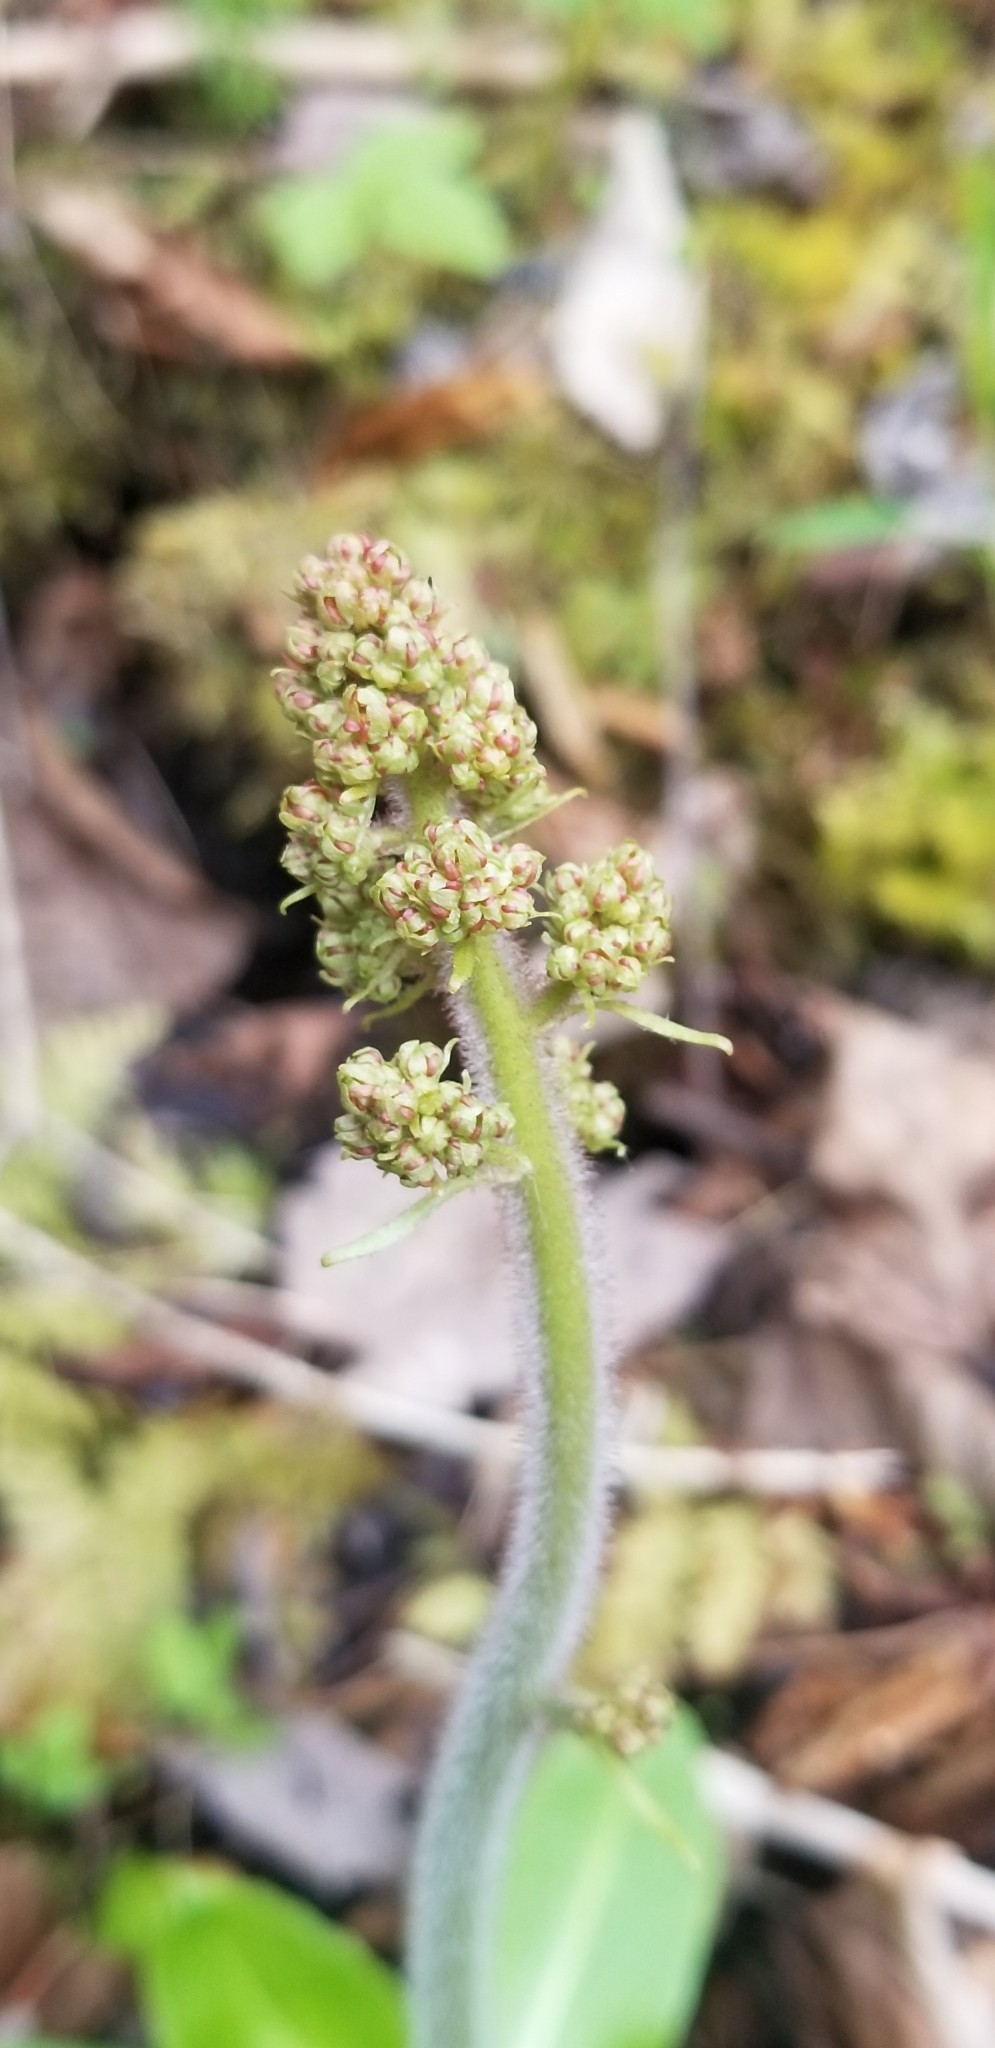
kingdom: Plantae
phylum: Tracheophyta
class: Magnoliopsida
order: Saxifragales
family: Saxifragaceae
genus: Micranthes
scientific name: Micranthes pensylvanica
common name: Marsh saxifrage
